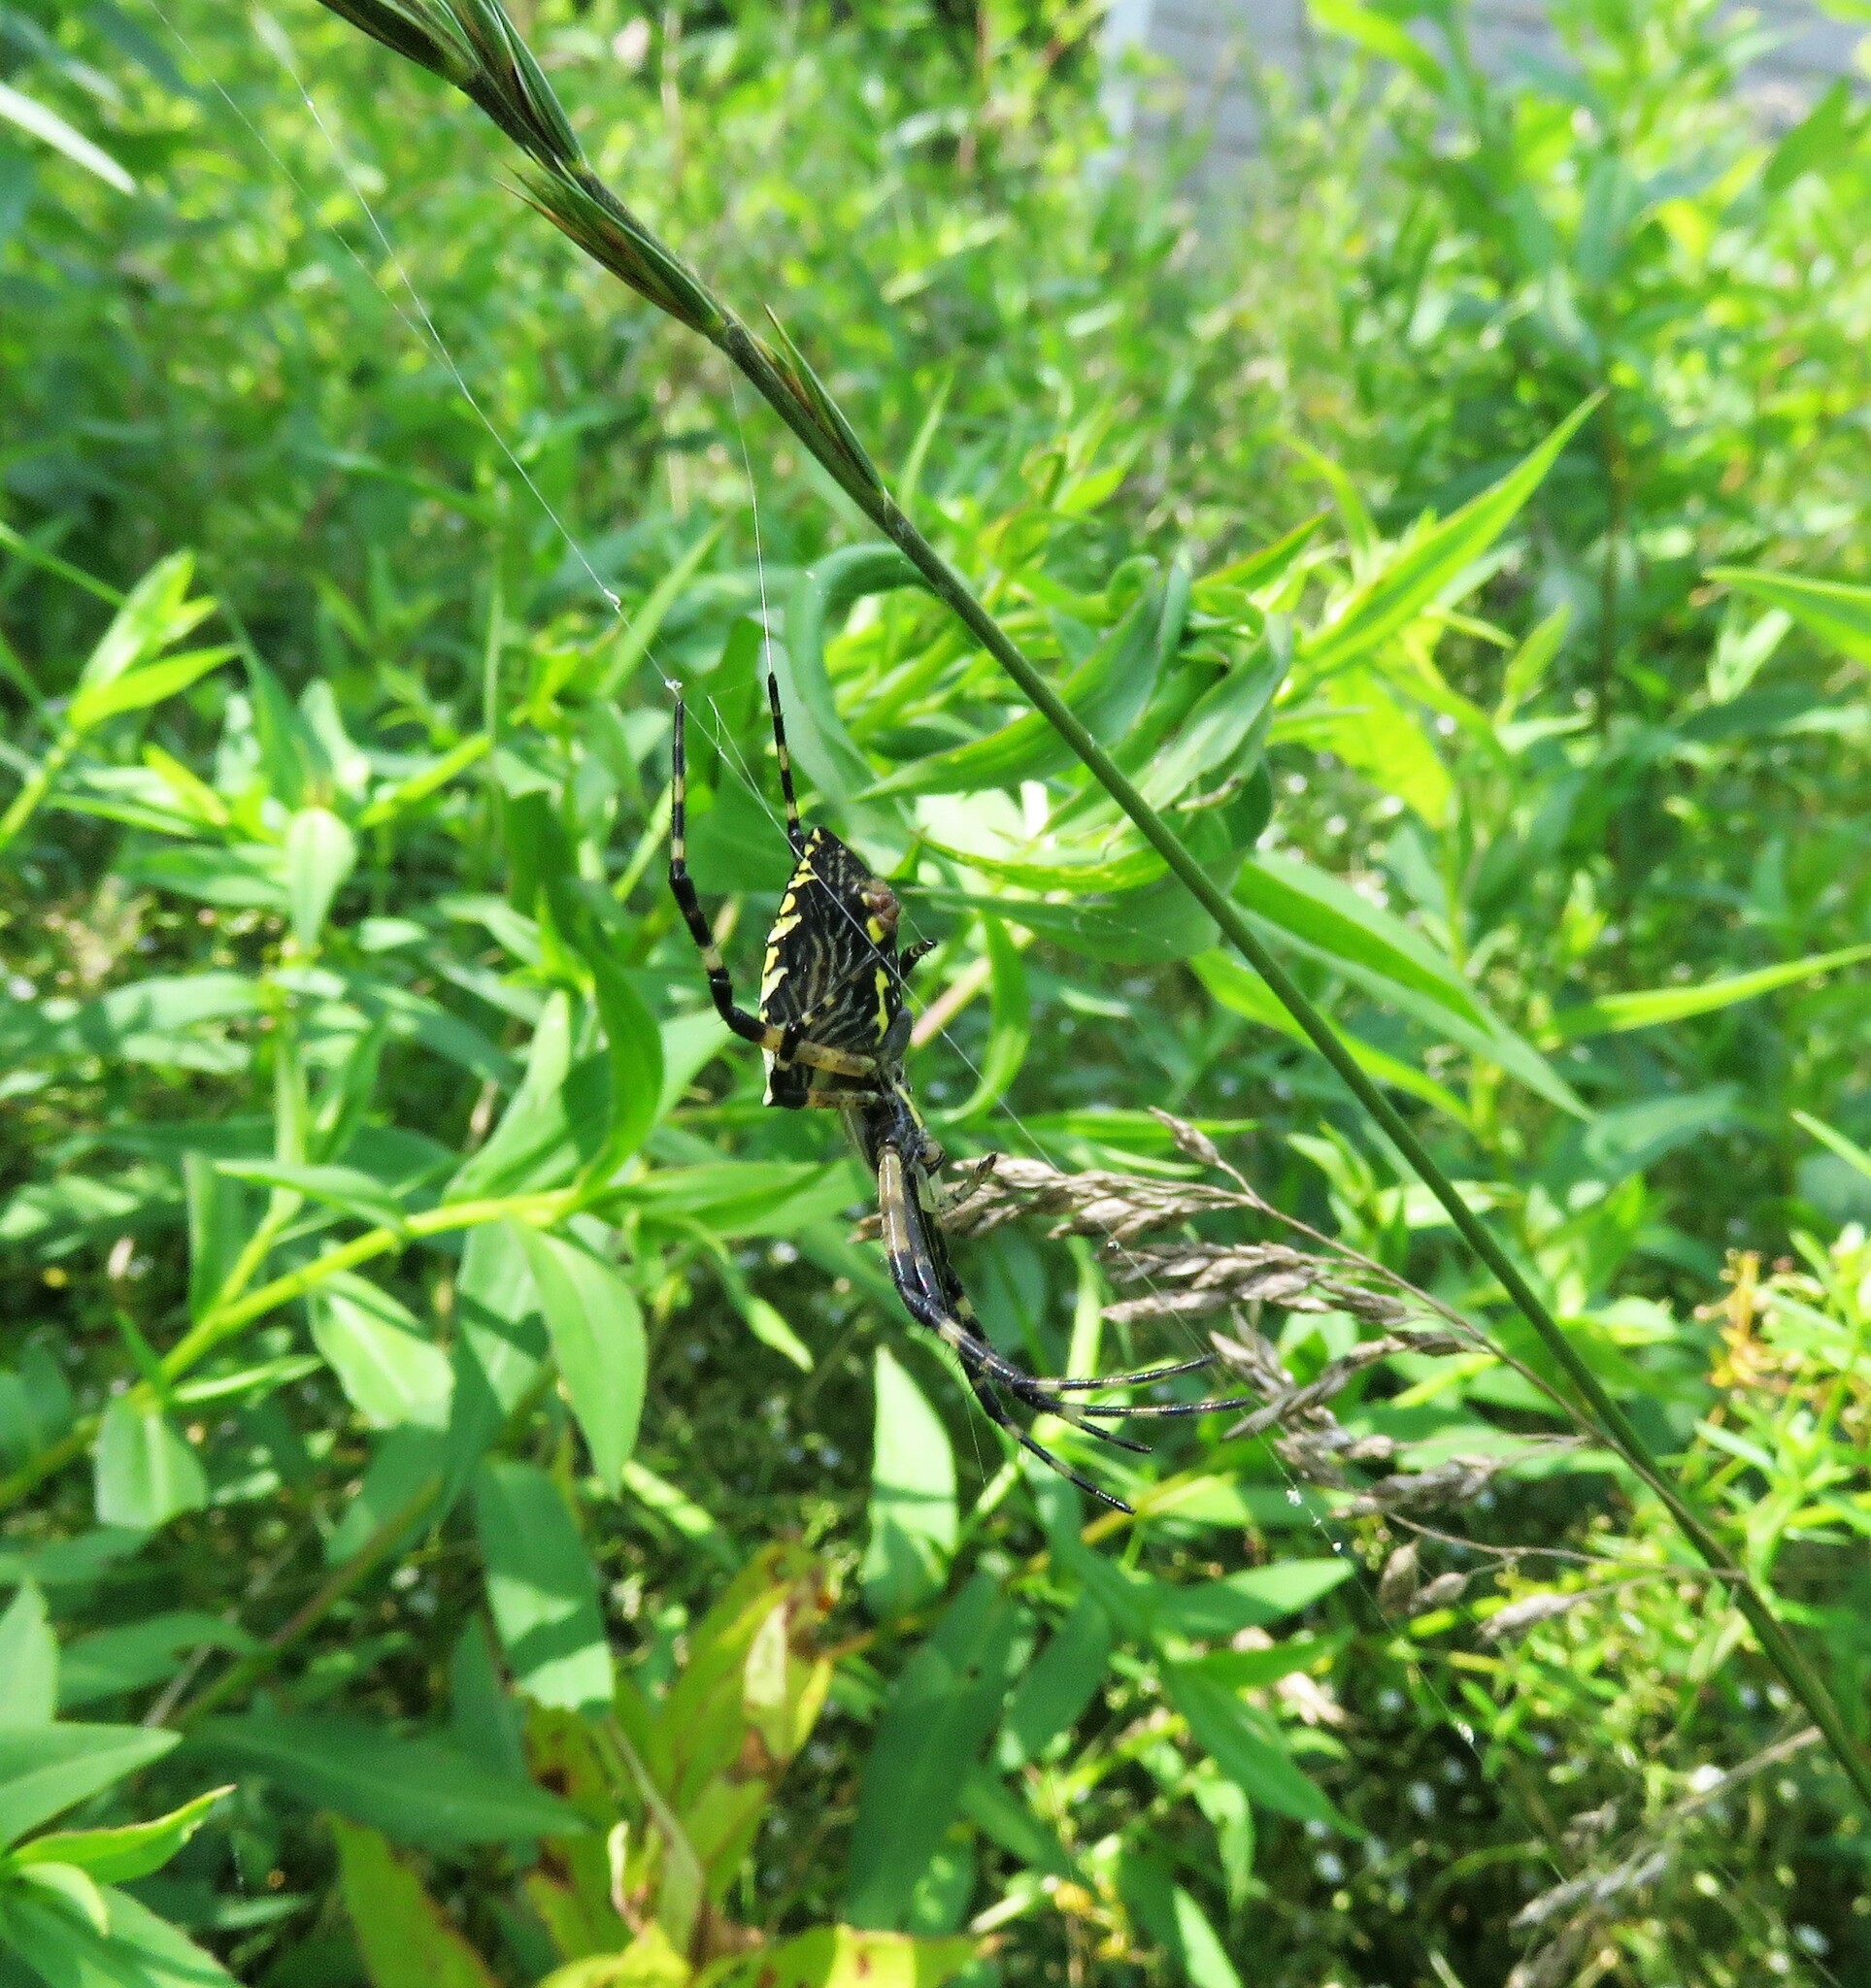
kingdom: Animalia
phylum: Arthropoda
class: Arachnida
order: Araneae
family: Araneidae
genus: Argiope
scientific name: Argiope aurantia
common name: Orb weavers
